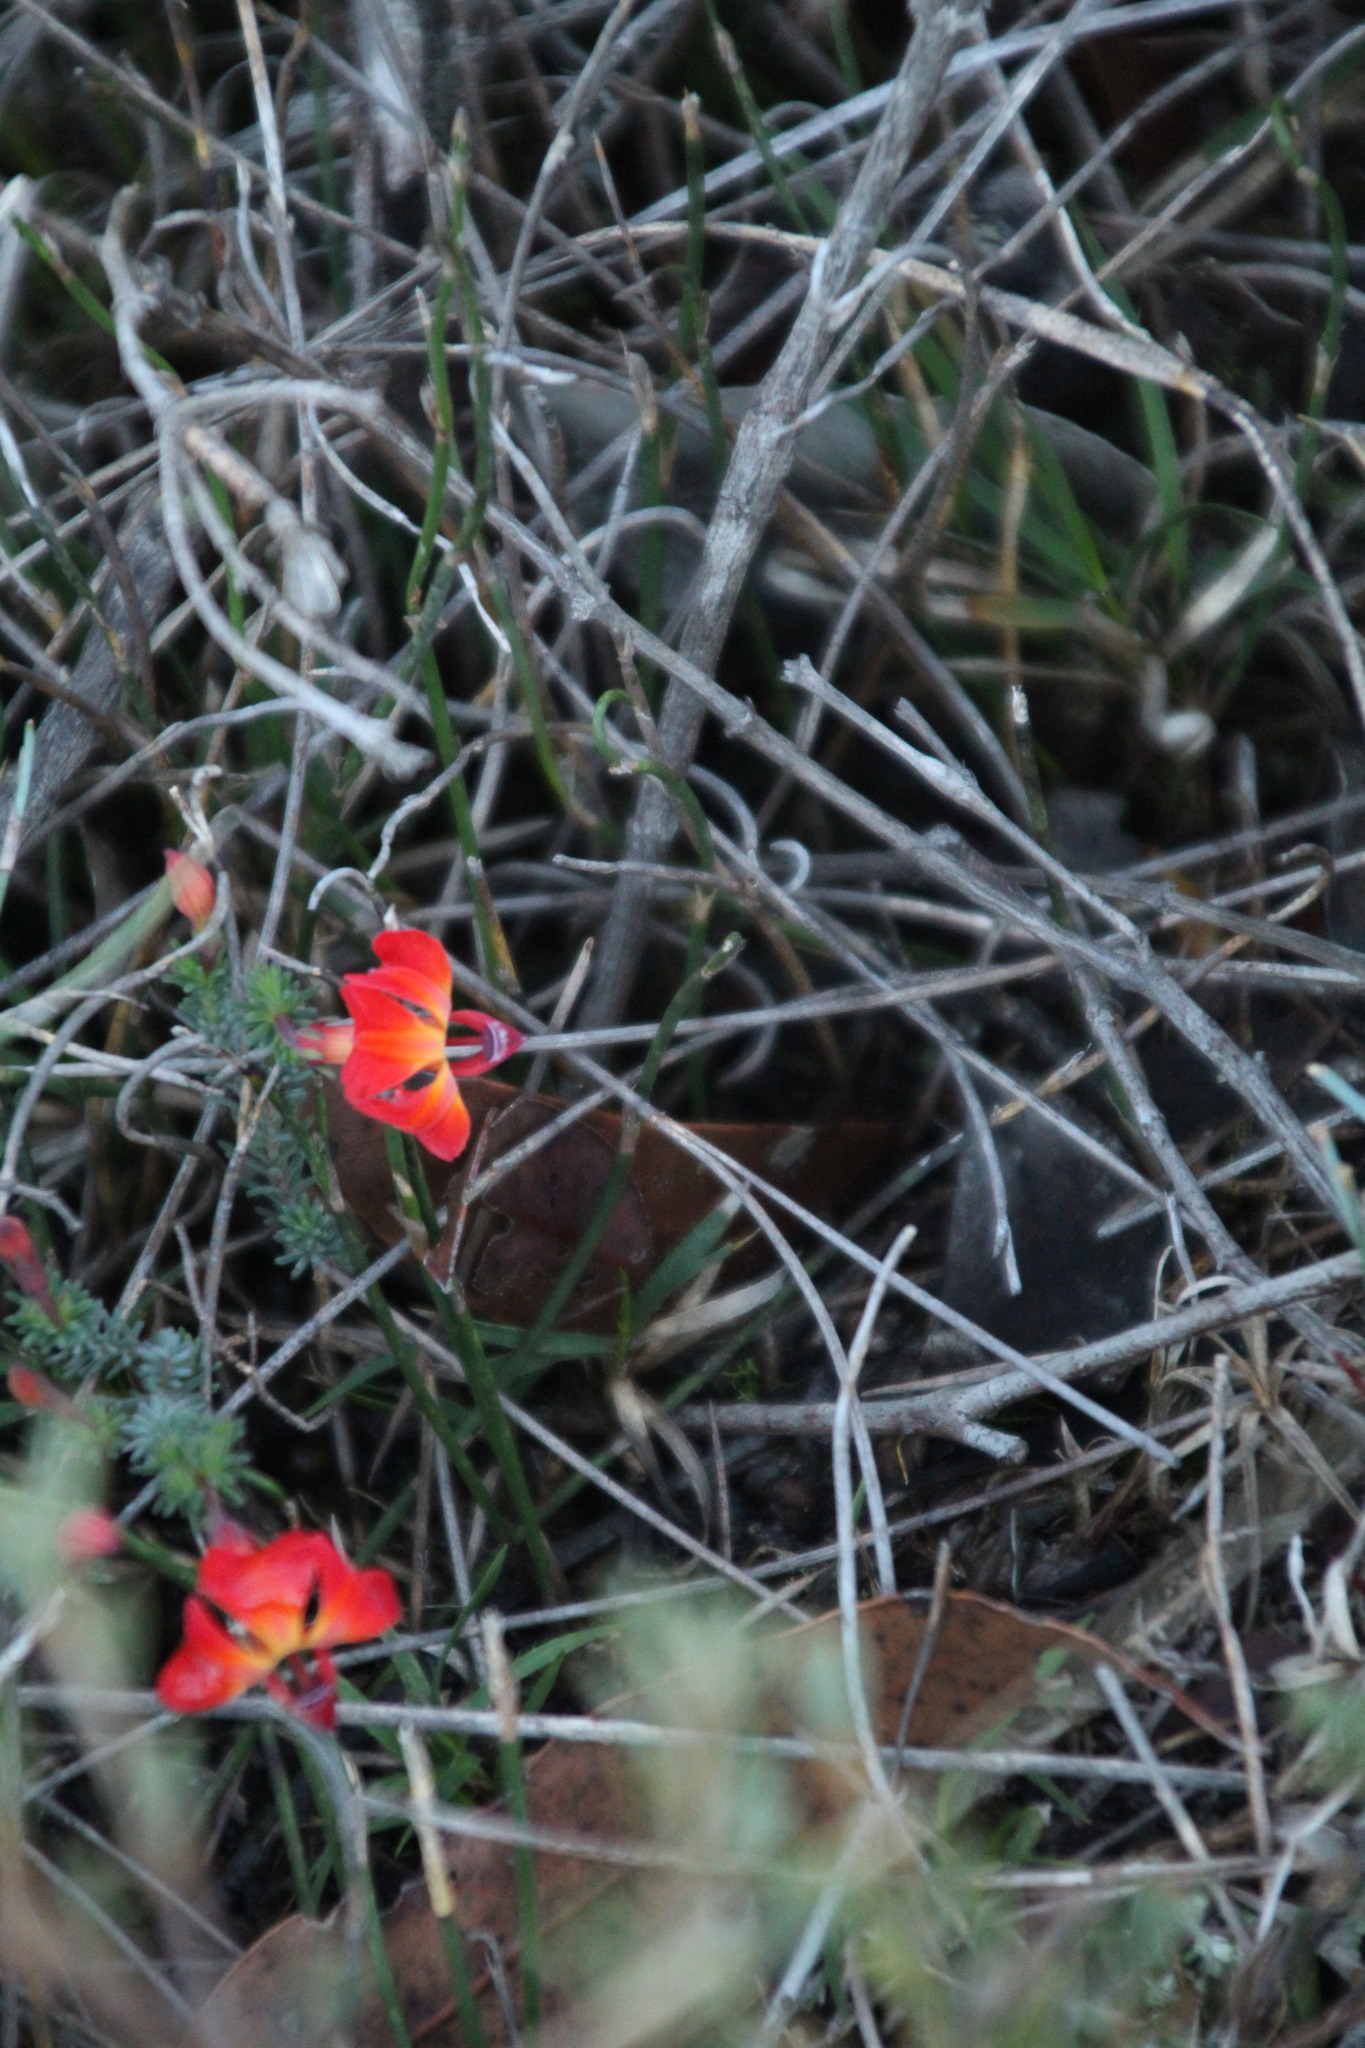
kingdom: Plantae
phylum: Tracheophyta
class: Magnoliopsida
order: Asterales
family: Goodeniaceae
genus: Lechenaultia
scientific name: Lechenaultia formosa
